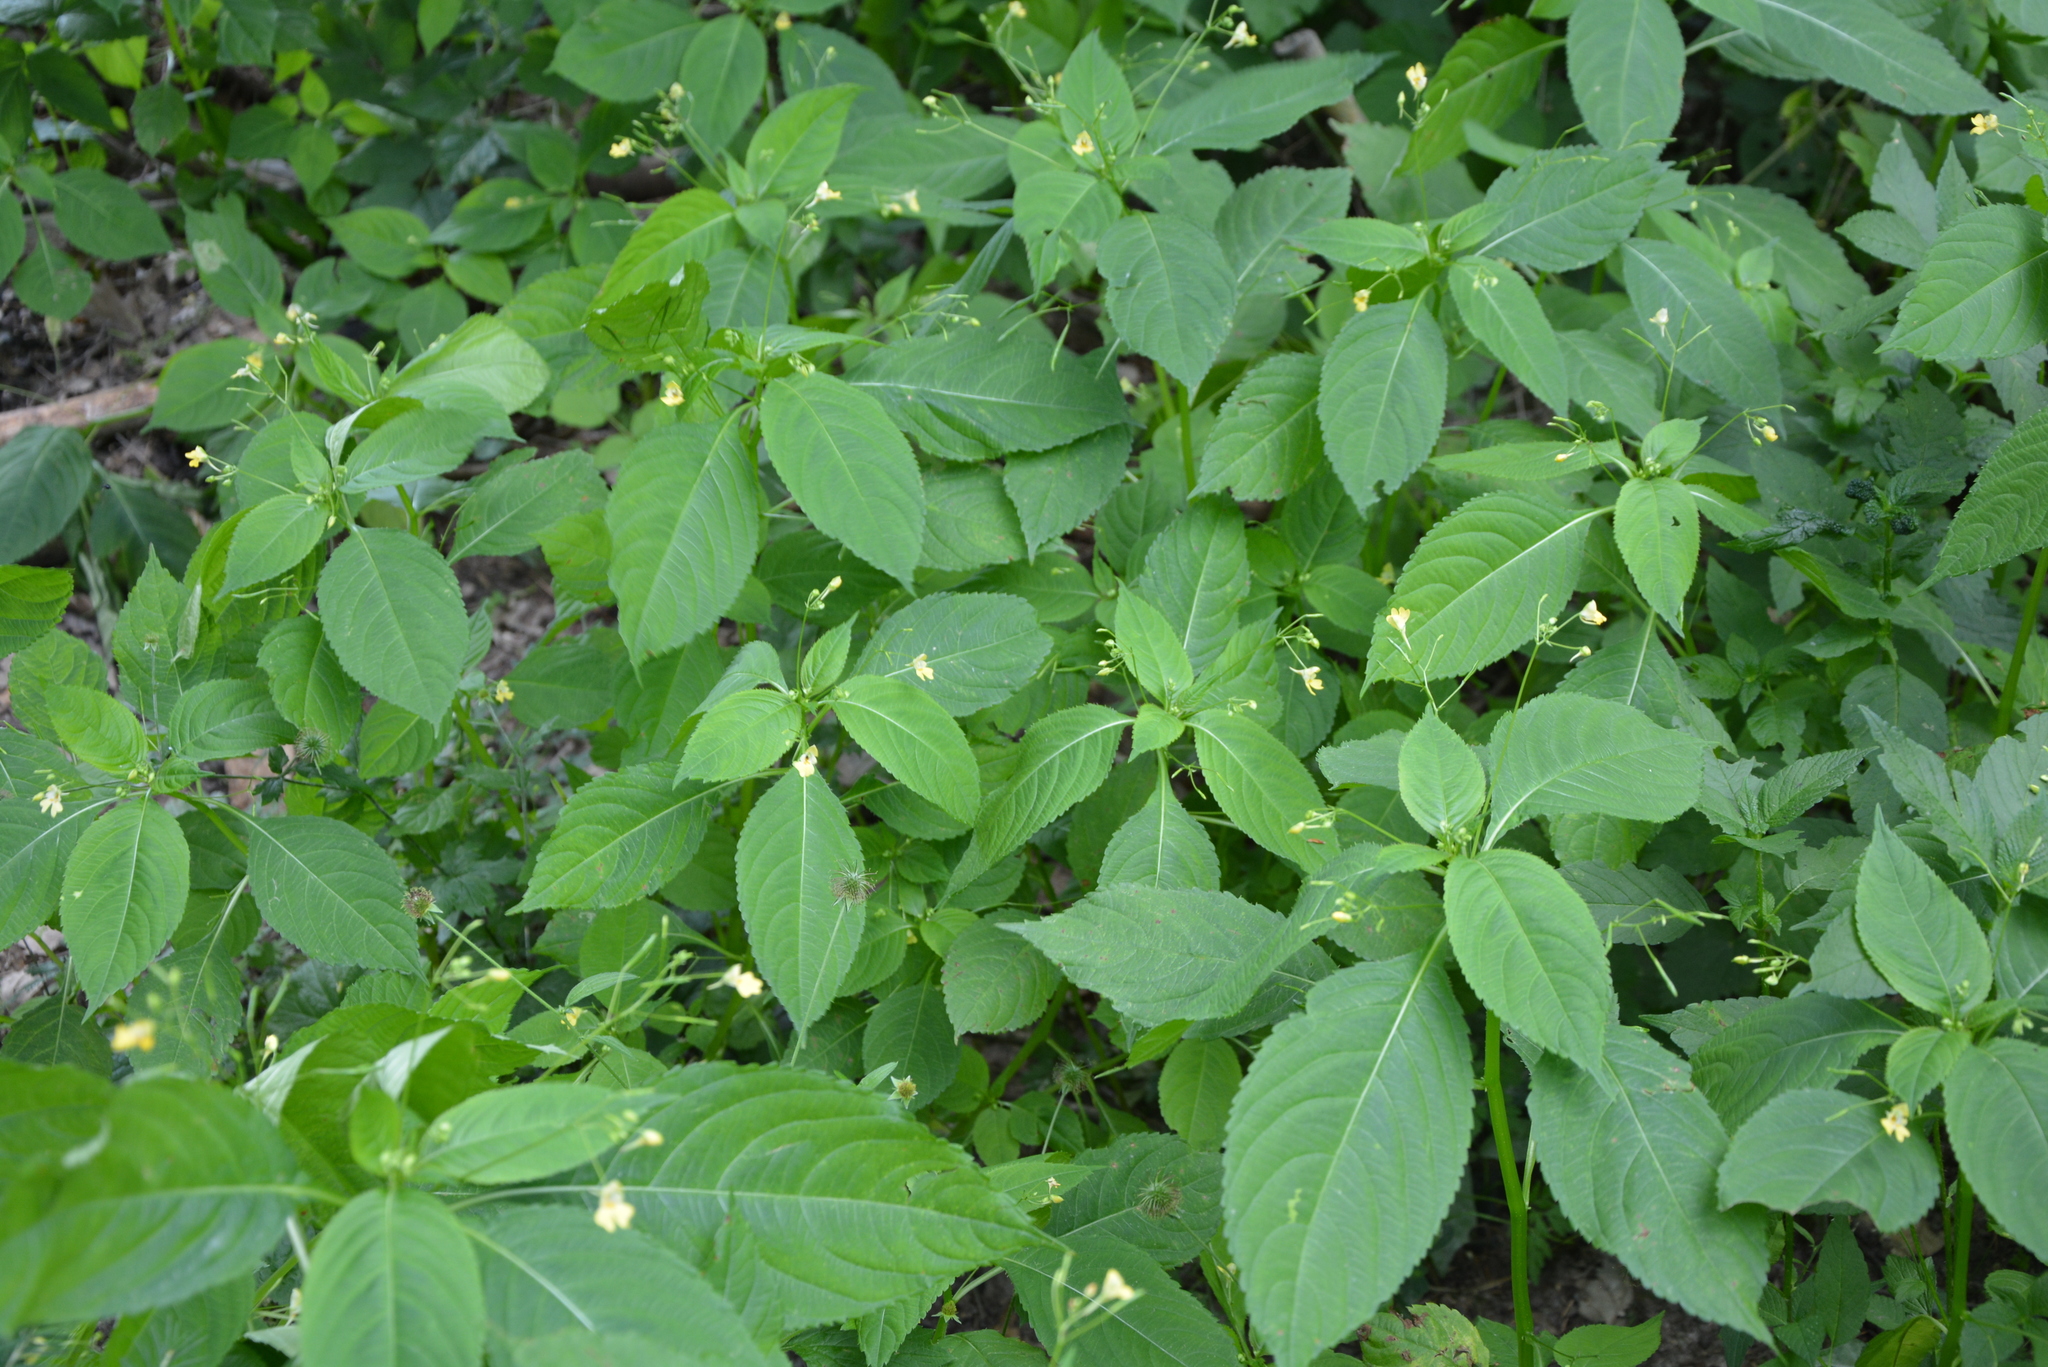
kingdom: Plantae
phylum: Tracheophyta
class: Magnoliopsida
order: Ericales
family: Balsaminaceae
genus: Impatiens
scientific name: Impatiens parviflora
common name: Small balsam
